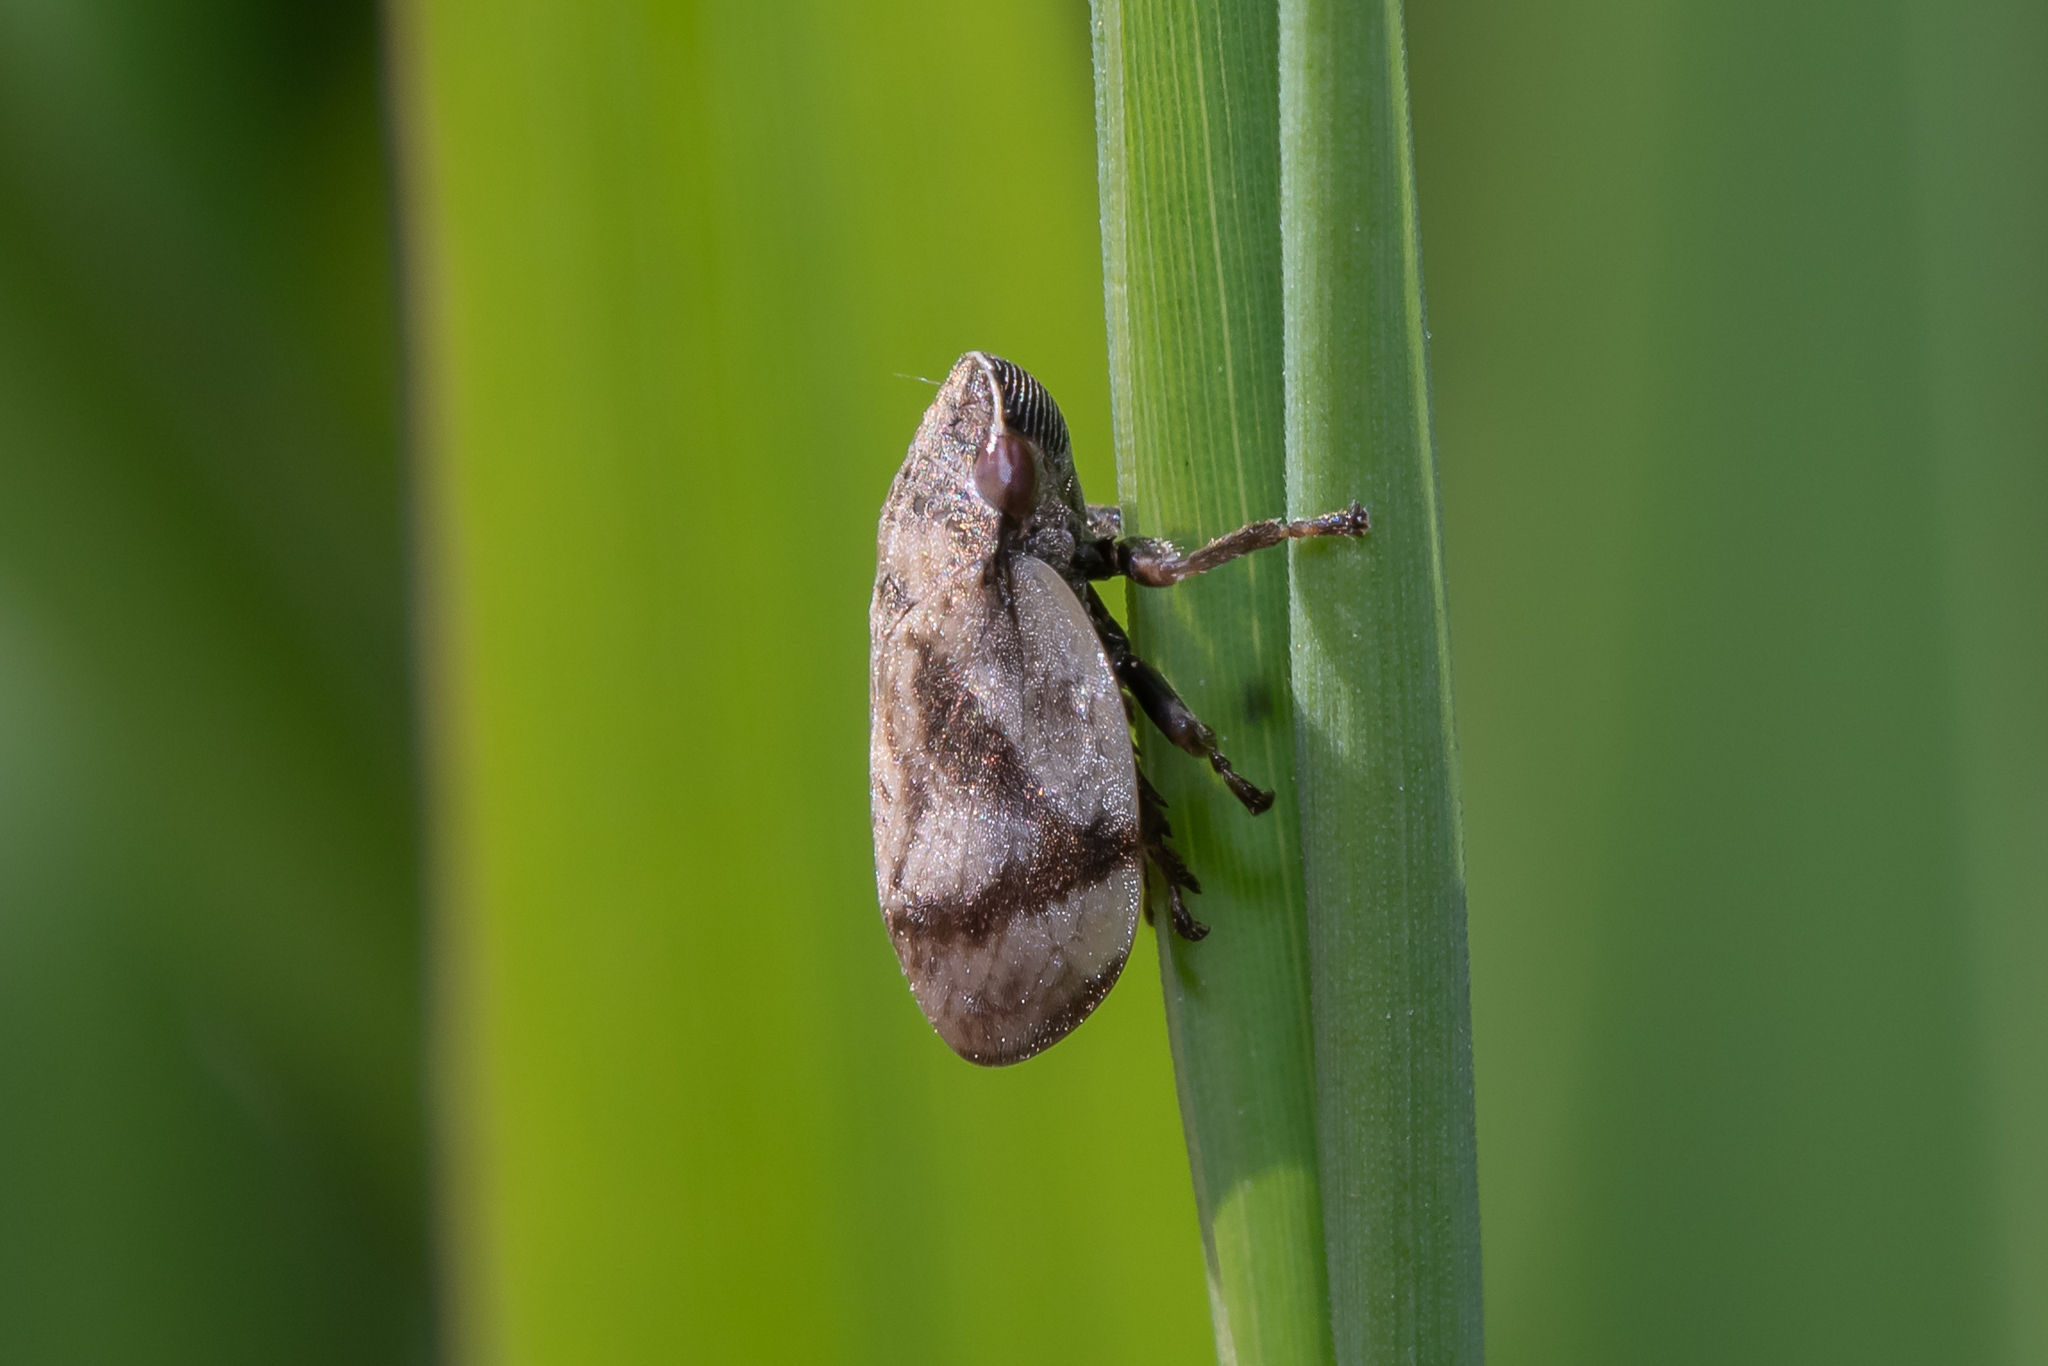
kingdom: Animalia
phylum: Arthropoda
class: Insecta
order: Hemiptera
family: Aphrophoridae
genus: Lepyronia
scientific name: Lepyronia coleoptrata
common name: Leafhopper
